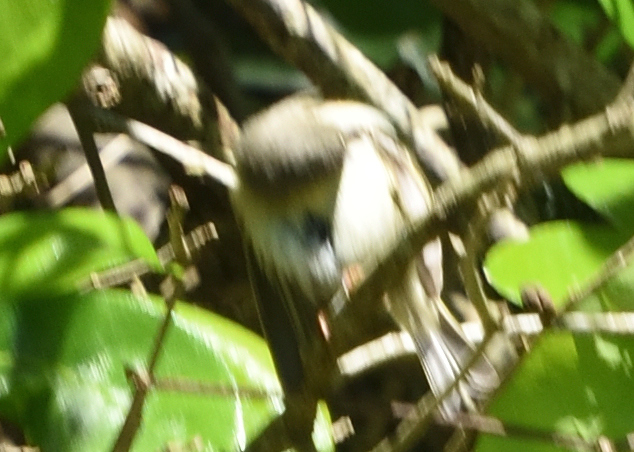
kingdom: Animalia
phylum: Chordata
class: Aves
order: Passeriformes
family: Regulidae
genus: Regulus
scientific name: Regulus calendula
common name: Ruby-crowned kinglet
